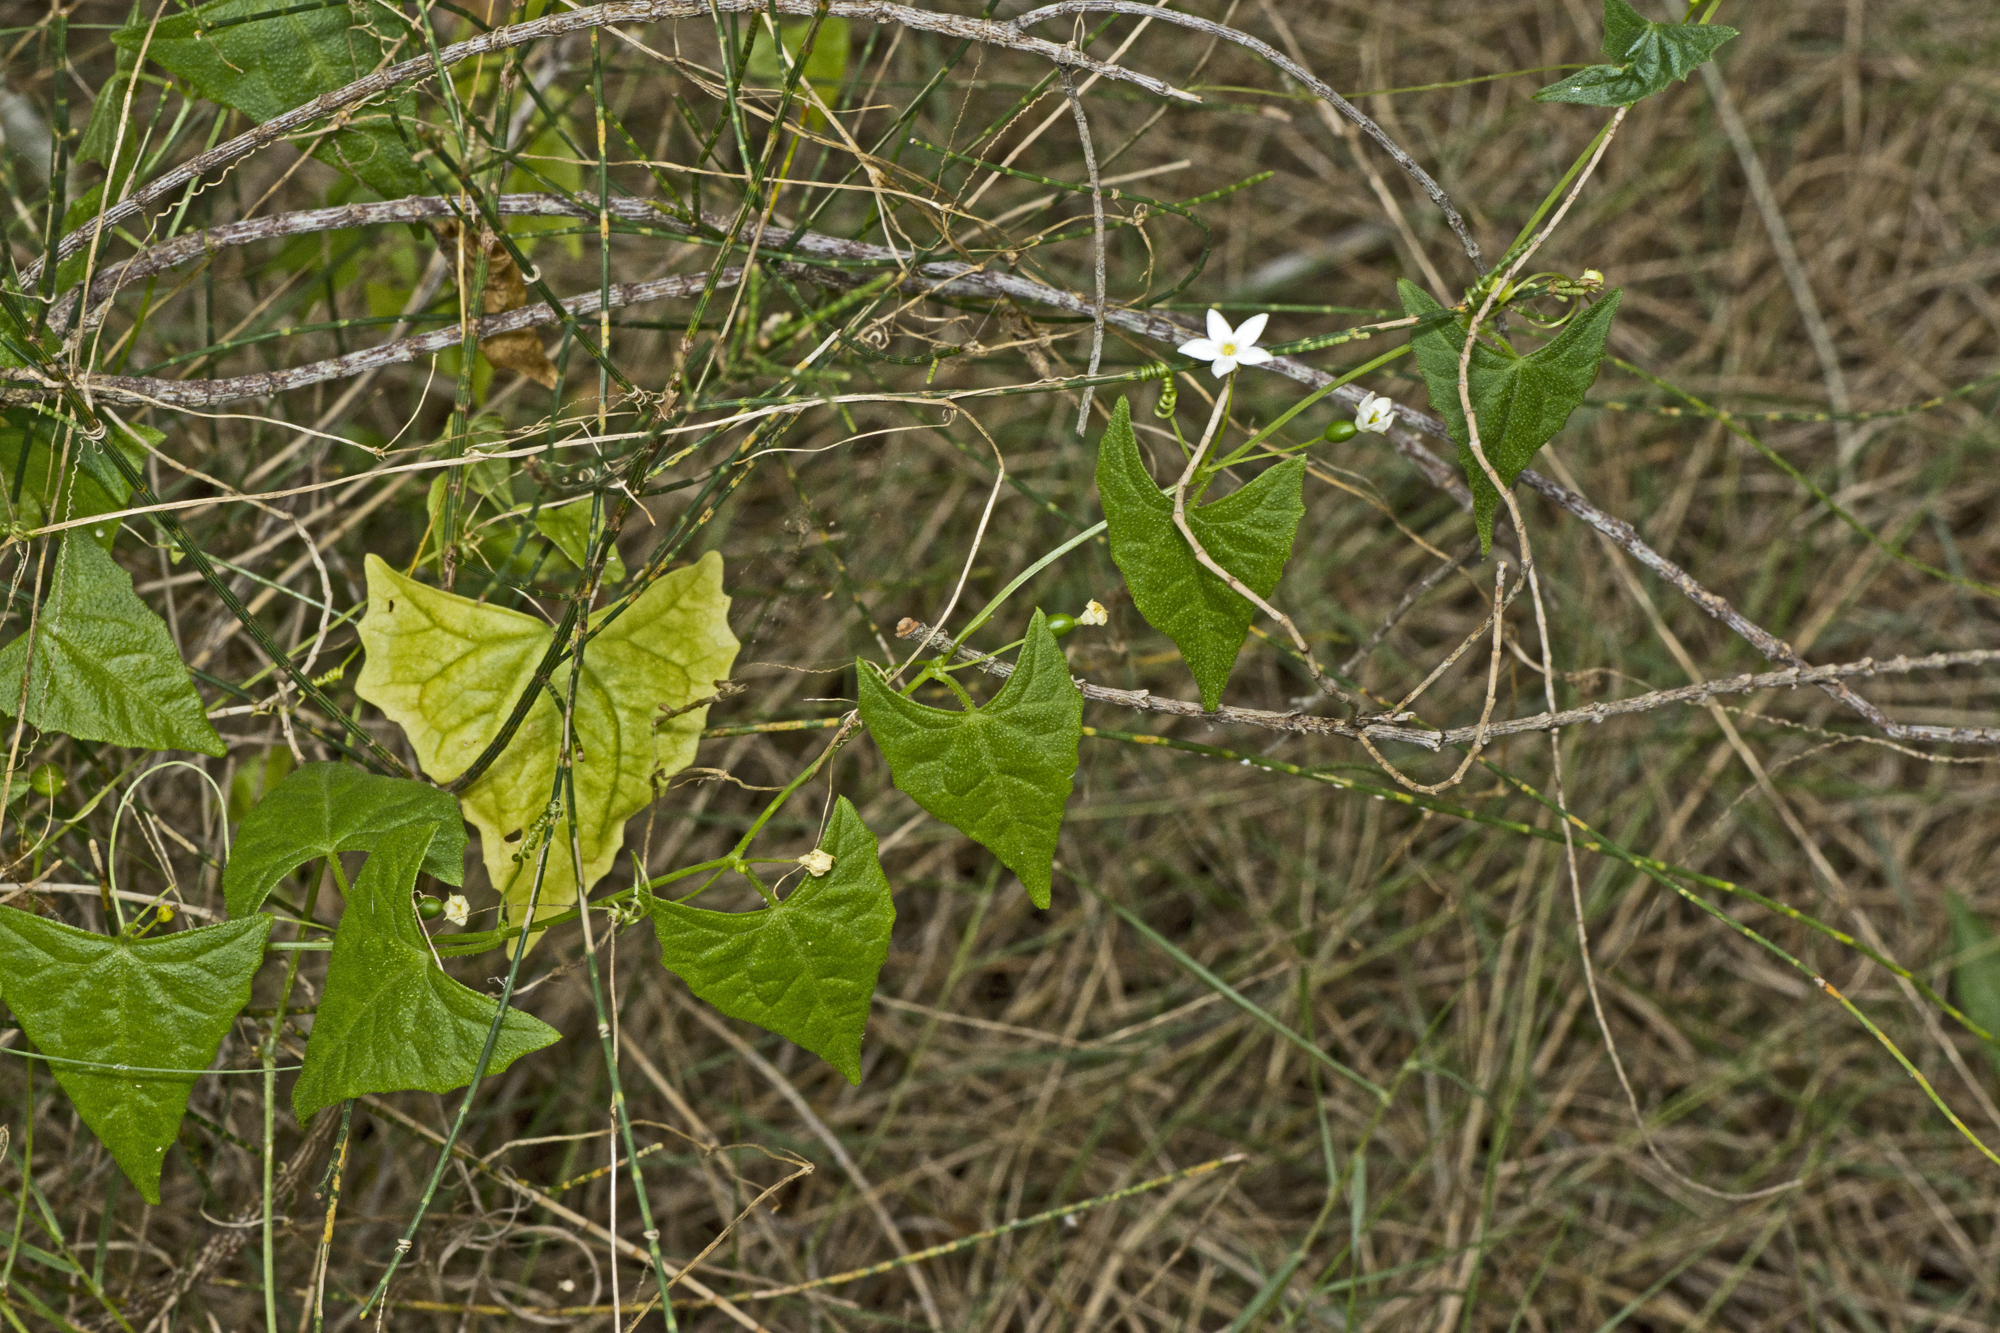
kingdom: Plantae
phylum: Tracheophyta
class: Magnoliopsida
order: Cucurbitales
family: Cucurbitaceae
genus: Zehneria
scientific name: Zehneria cunninghamii
